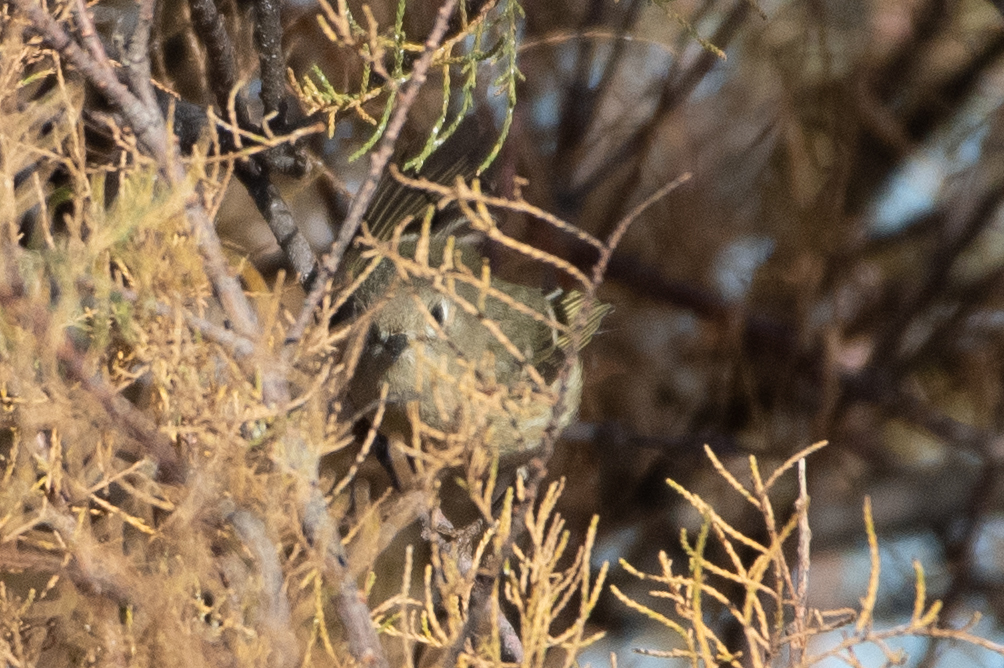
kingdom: Animalia
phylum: Chordata
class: Aves
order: Passeriformes
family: Regulidae
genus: Regulus
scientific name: Regulus calendula
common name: Ruby-crowned kinglet
